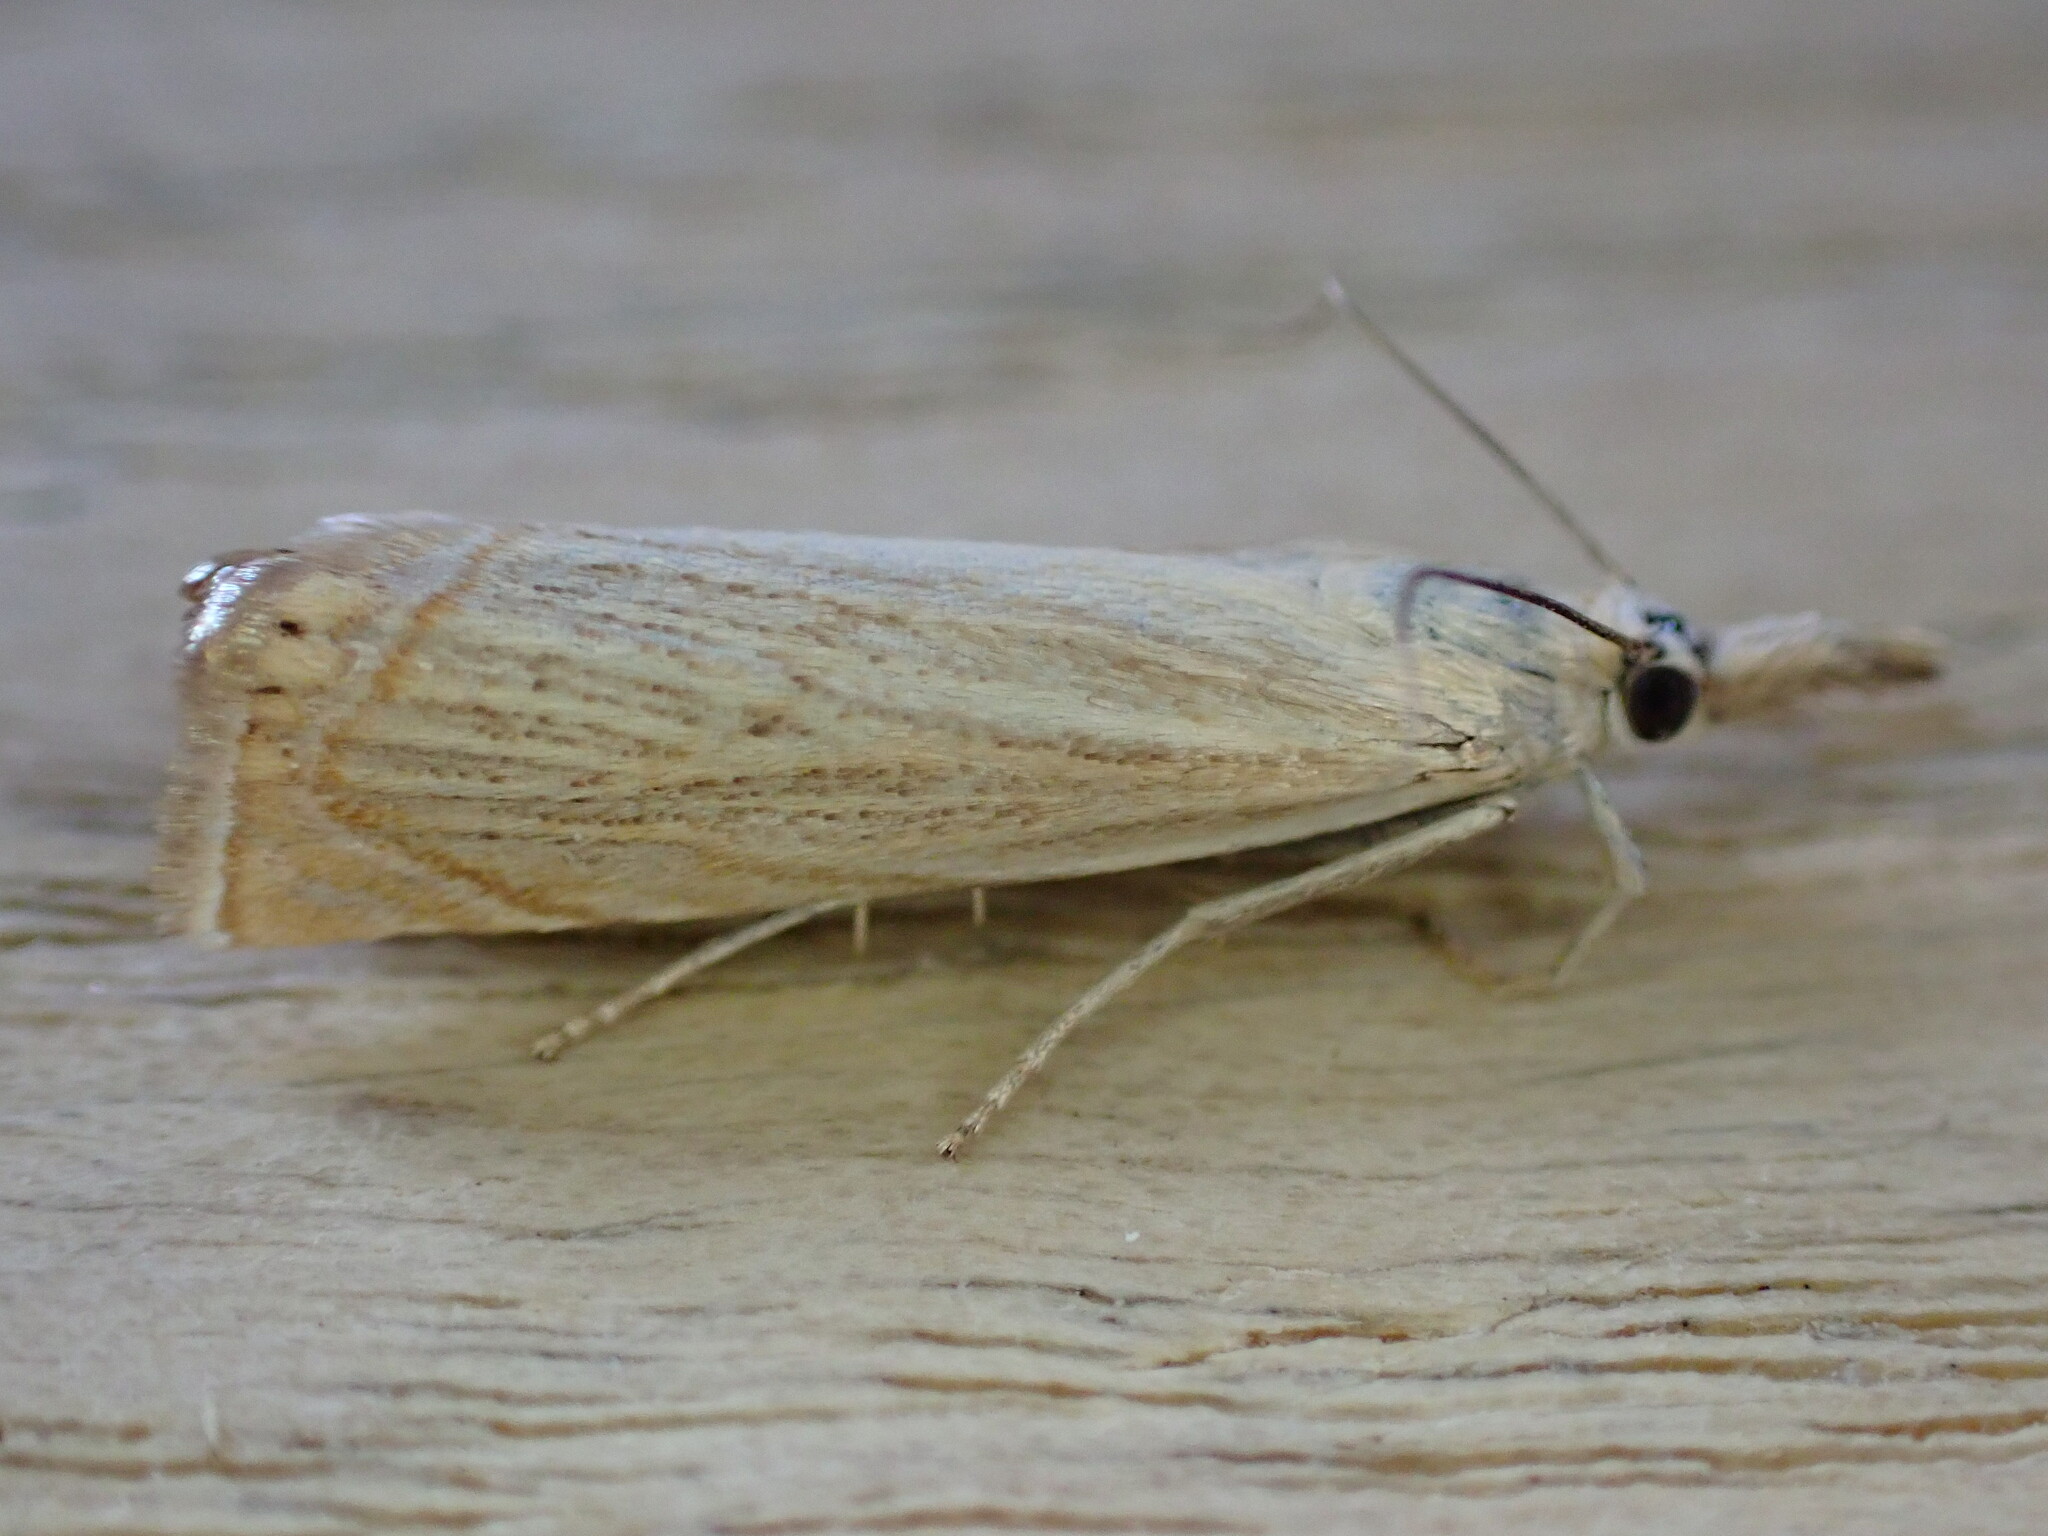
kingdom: Animalia
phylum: Arthropoda
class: Insecta
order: Lepidoptera
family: Crambidae
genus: Chrysoteuchia
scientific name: Chrysoteuchia culmella
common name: Garden grass-veneer
